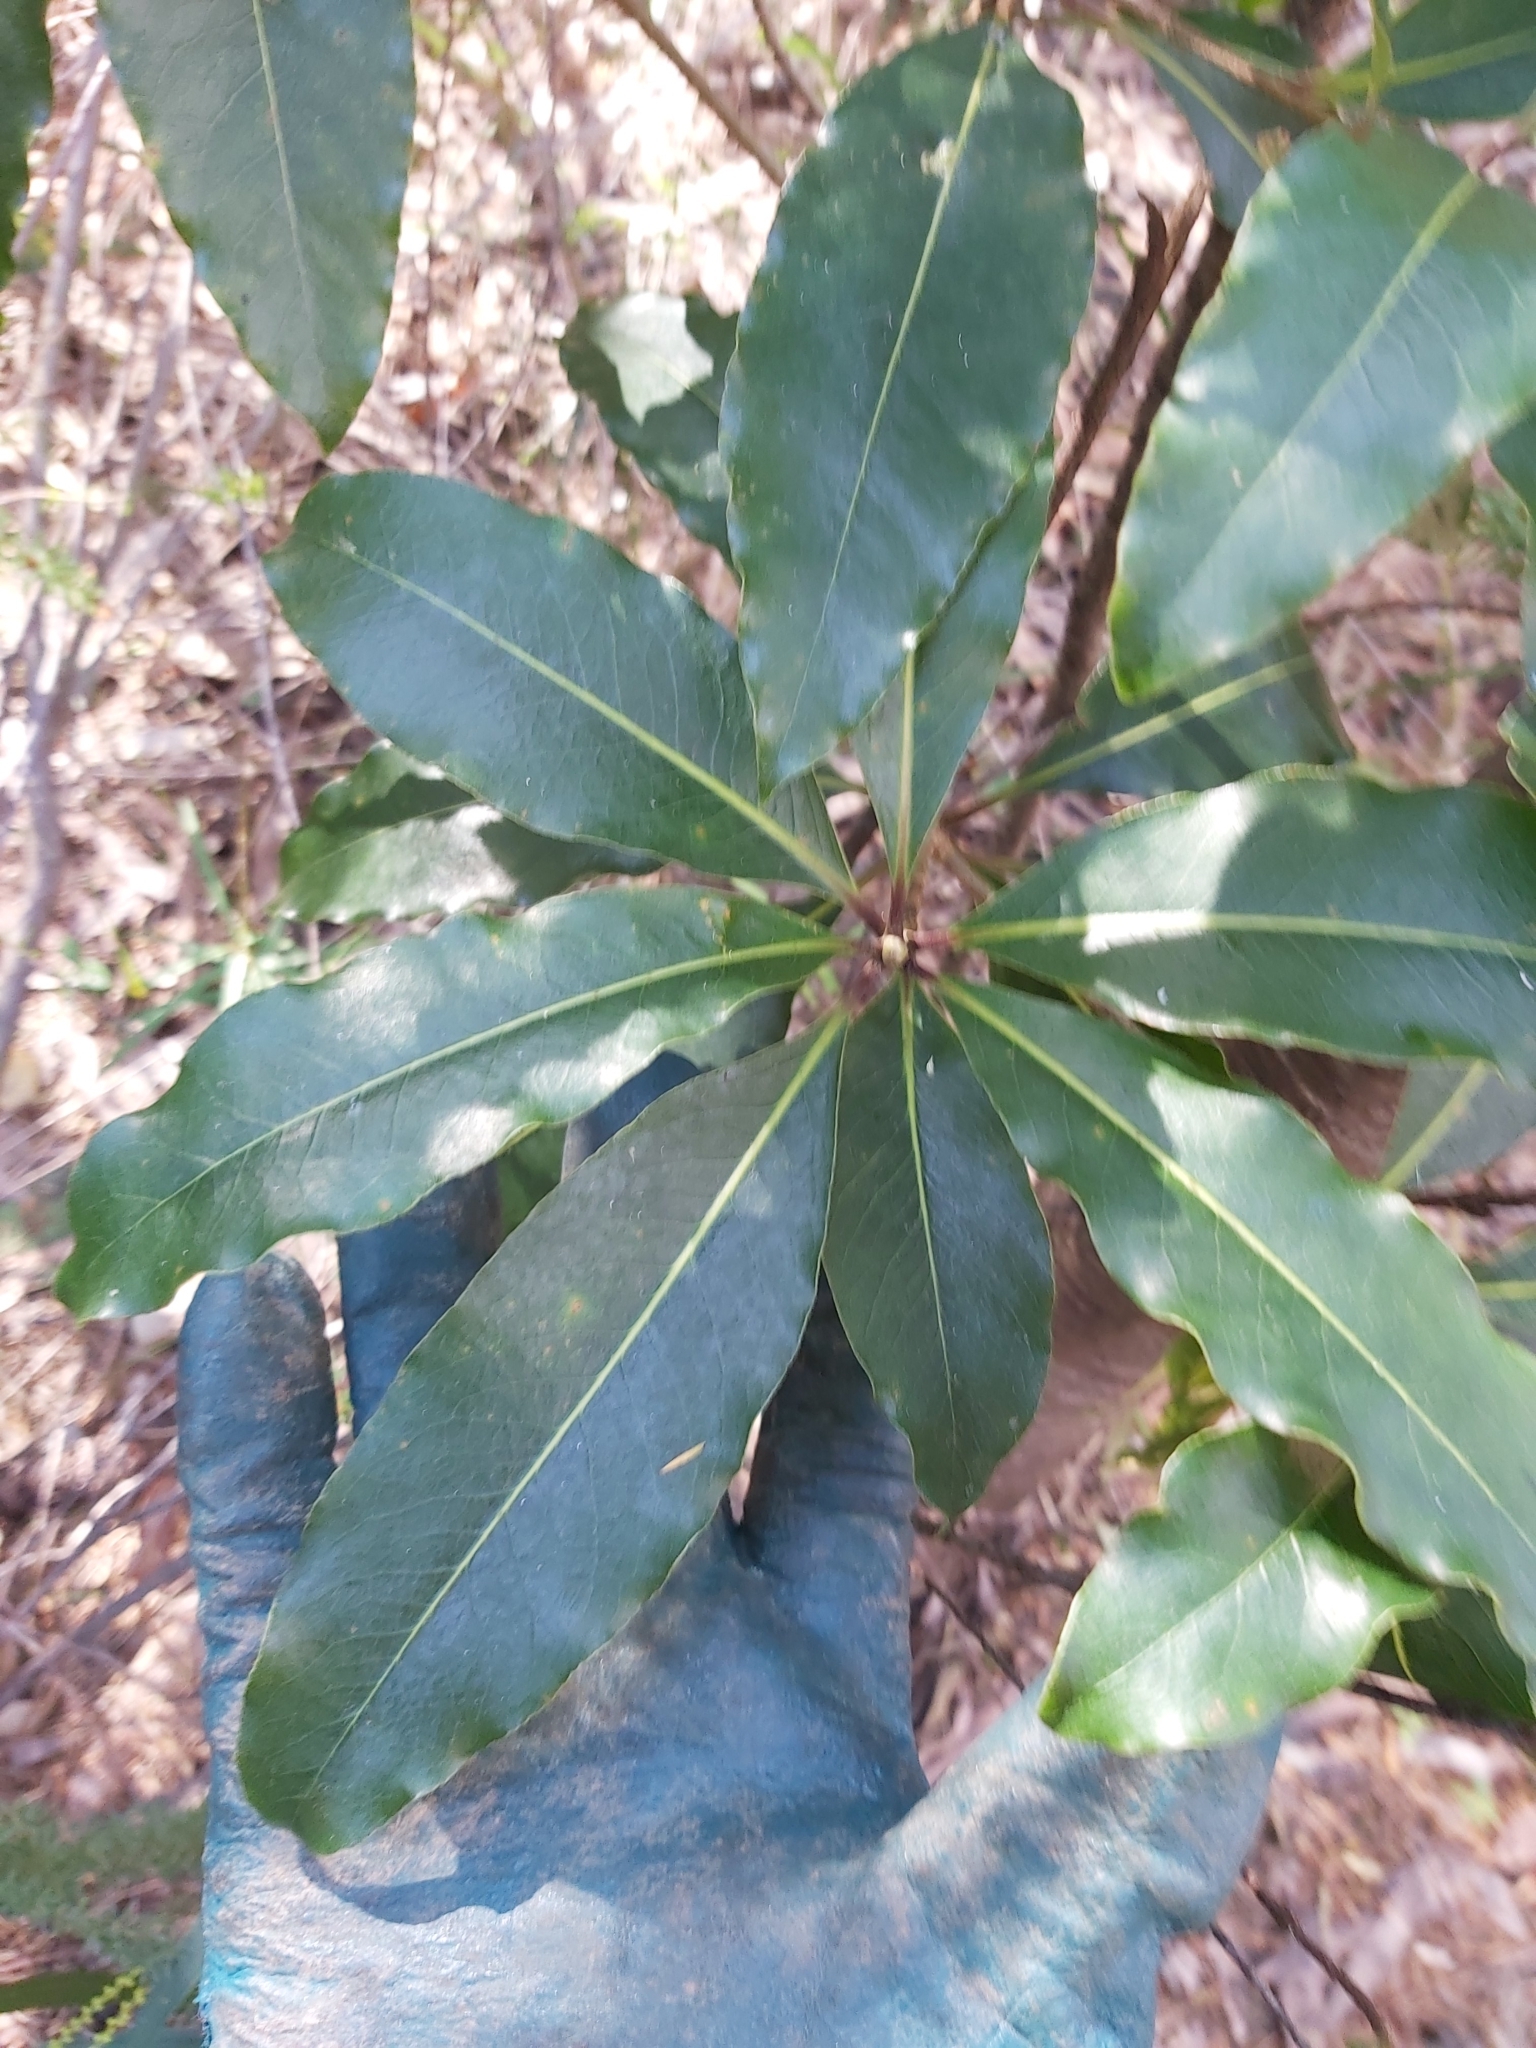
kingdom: Plantae
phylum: Tracheophyta
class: Magnoliopsida
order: Apiales
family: Pittosporaceae
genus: Pittosporum
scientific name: Pittosporum undulatum
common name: Australian cheesewood
